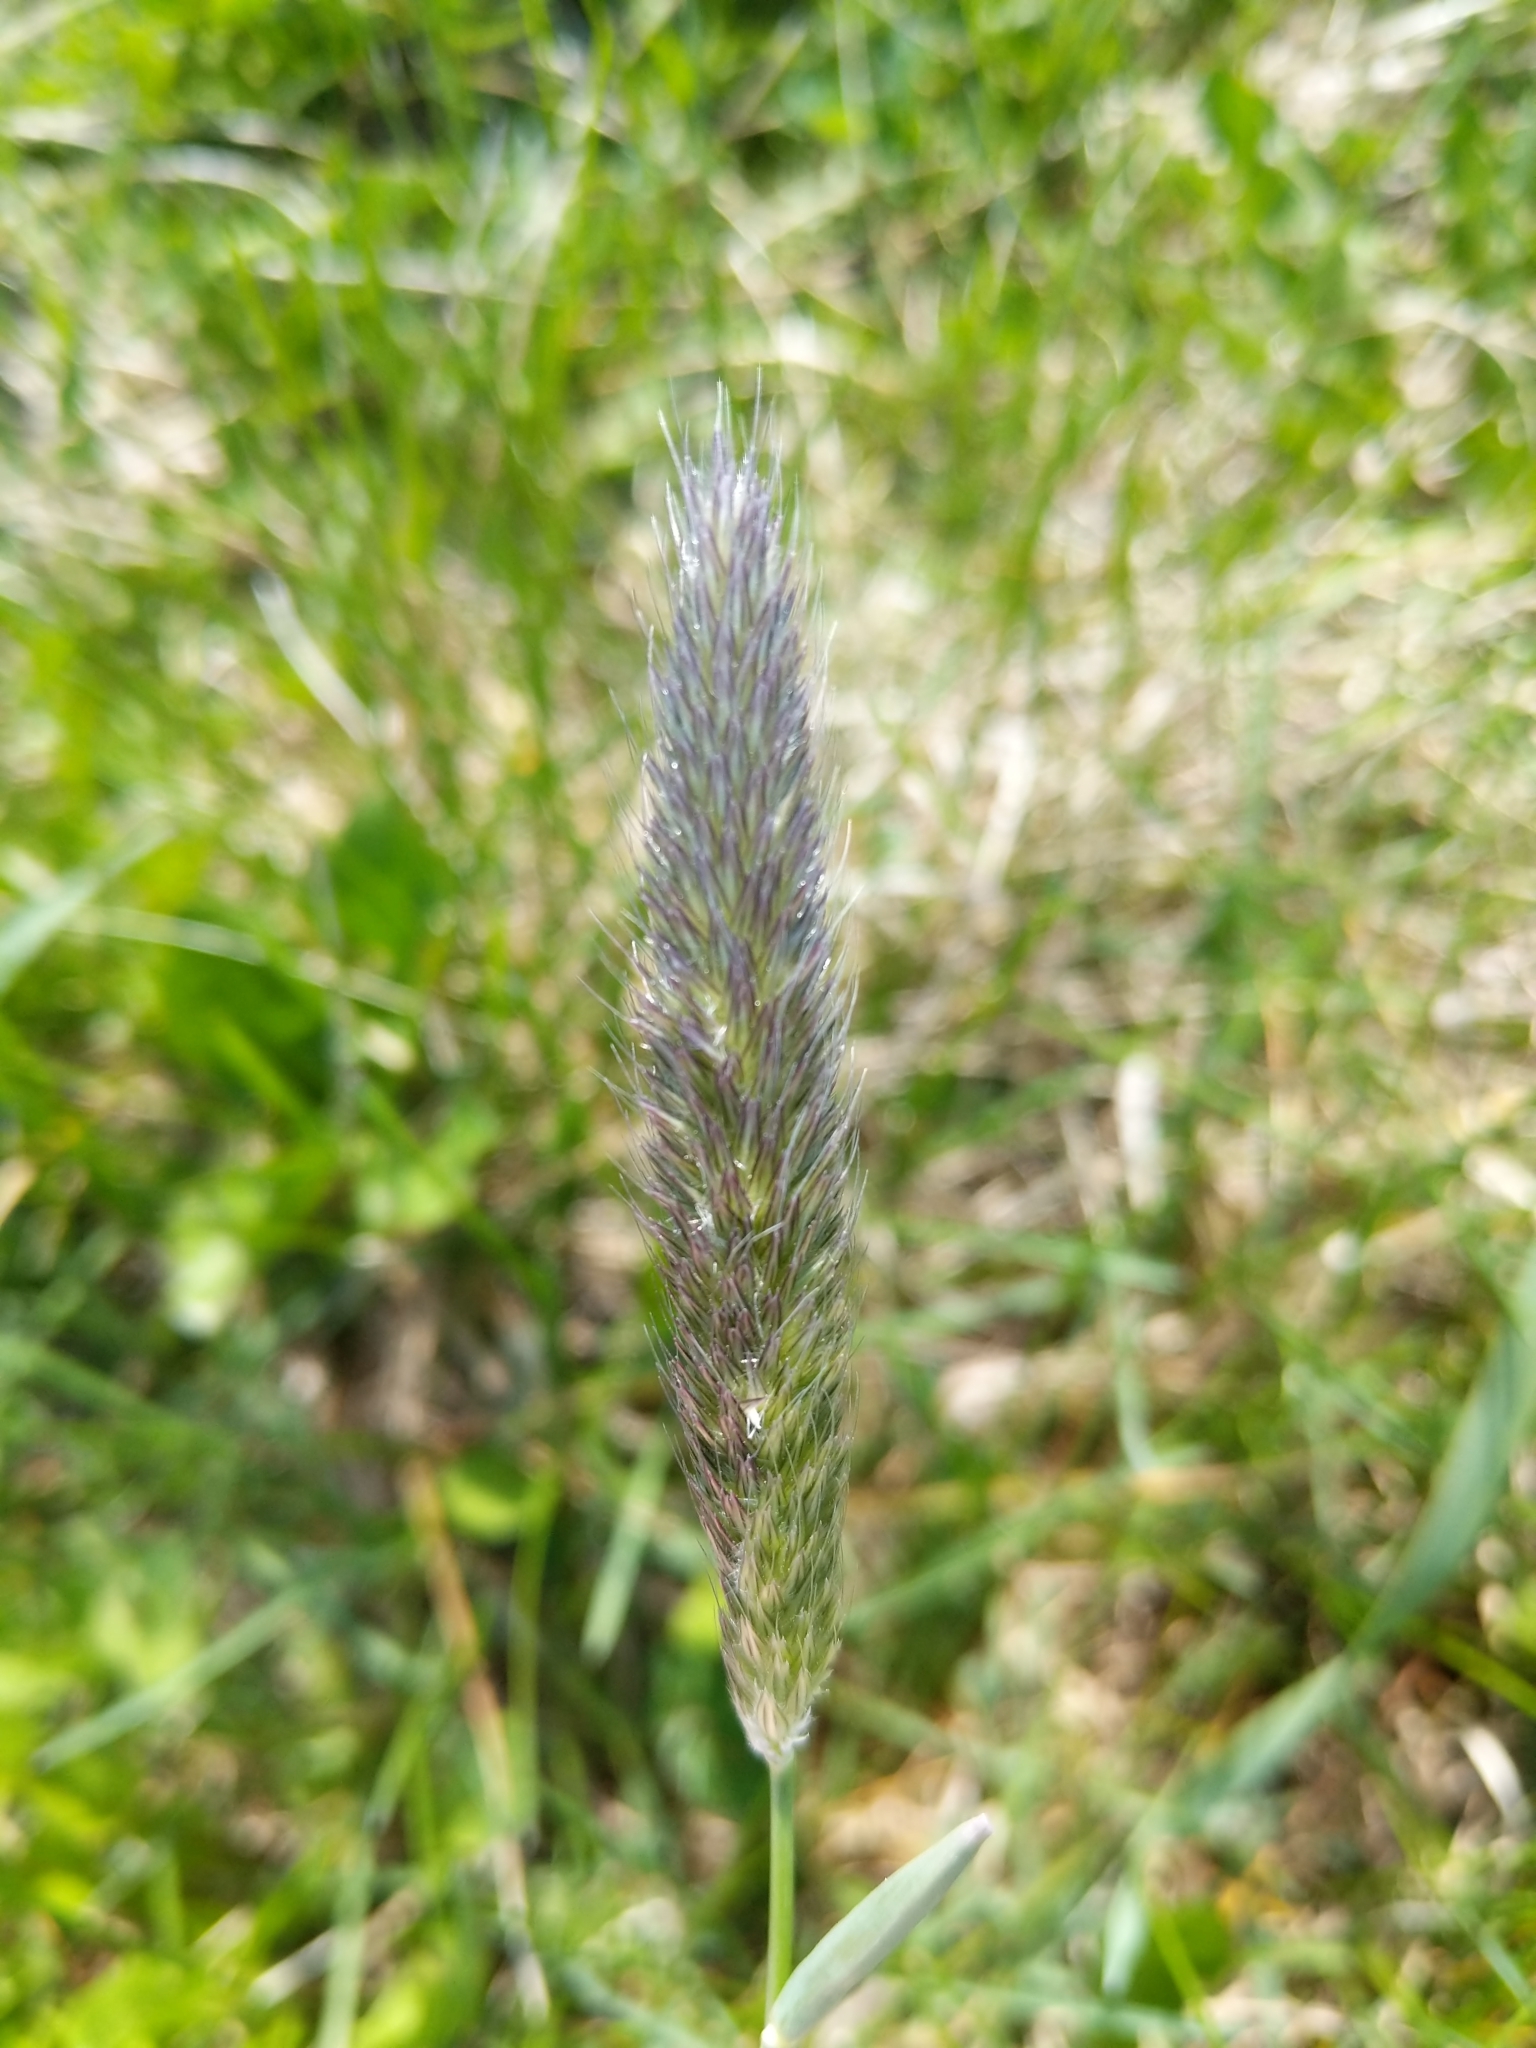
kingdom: Plantae
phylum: Tracheophyta
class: Liliopsida
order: Poales
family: Poaceae
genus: Alopecurus
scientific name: Alopecurus pratensis
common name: Meadow foxtail
